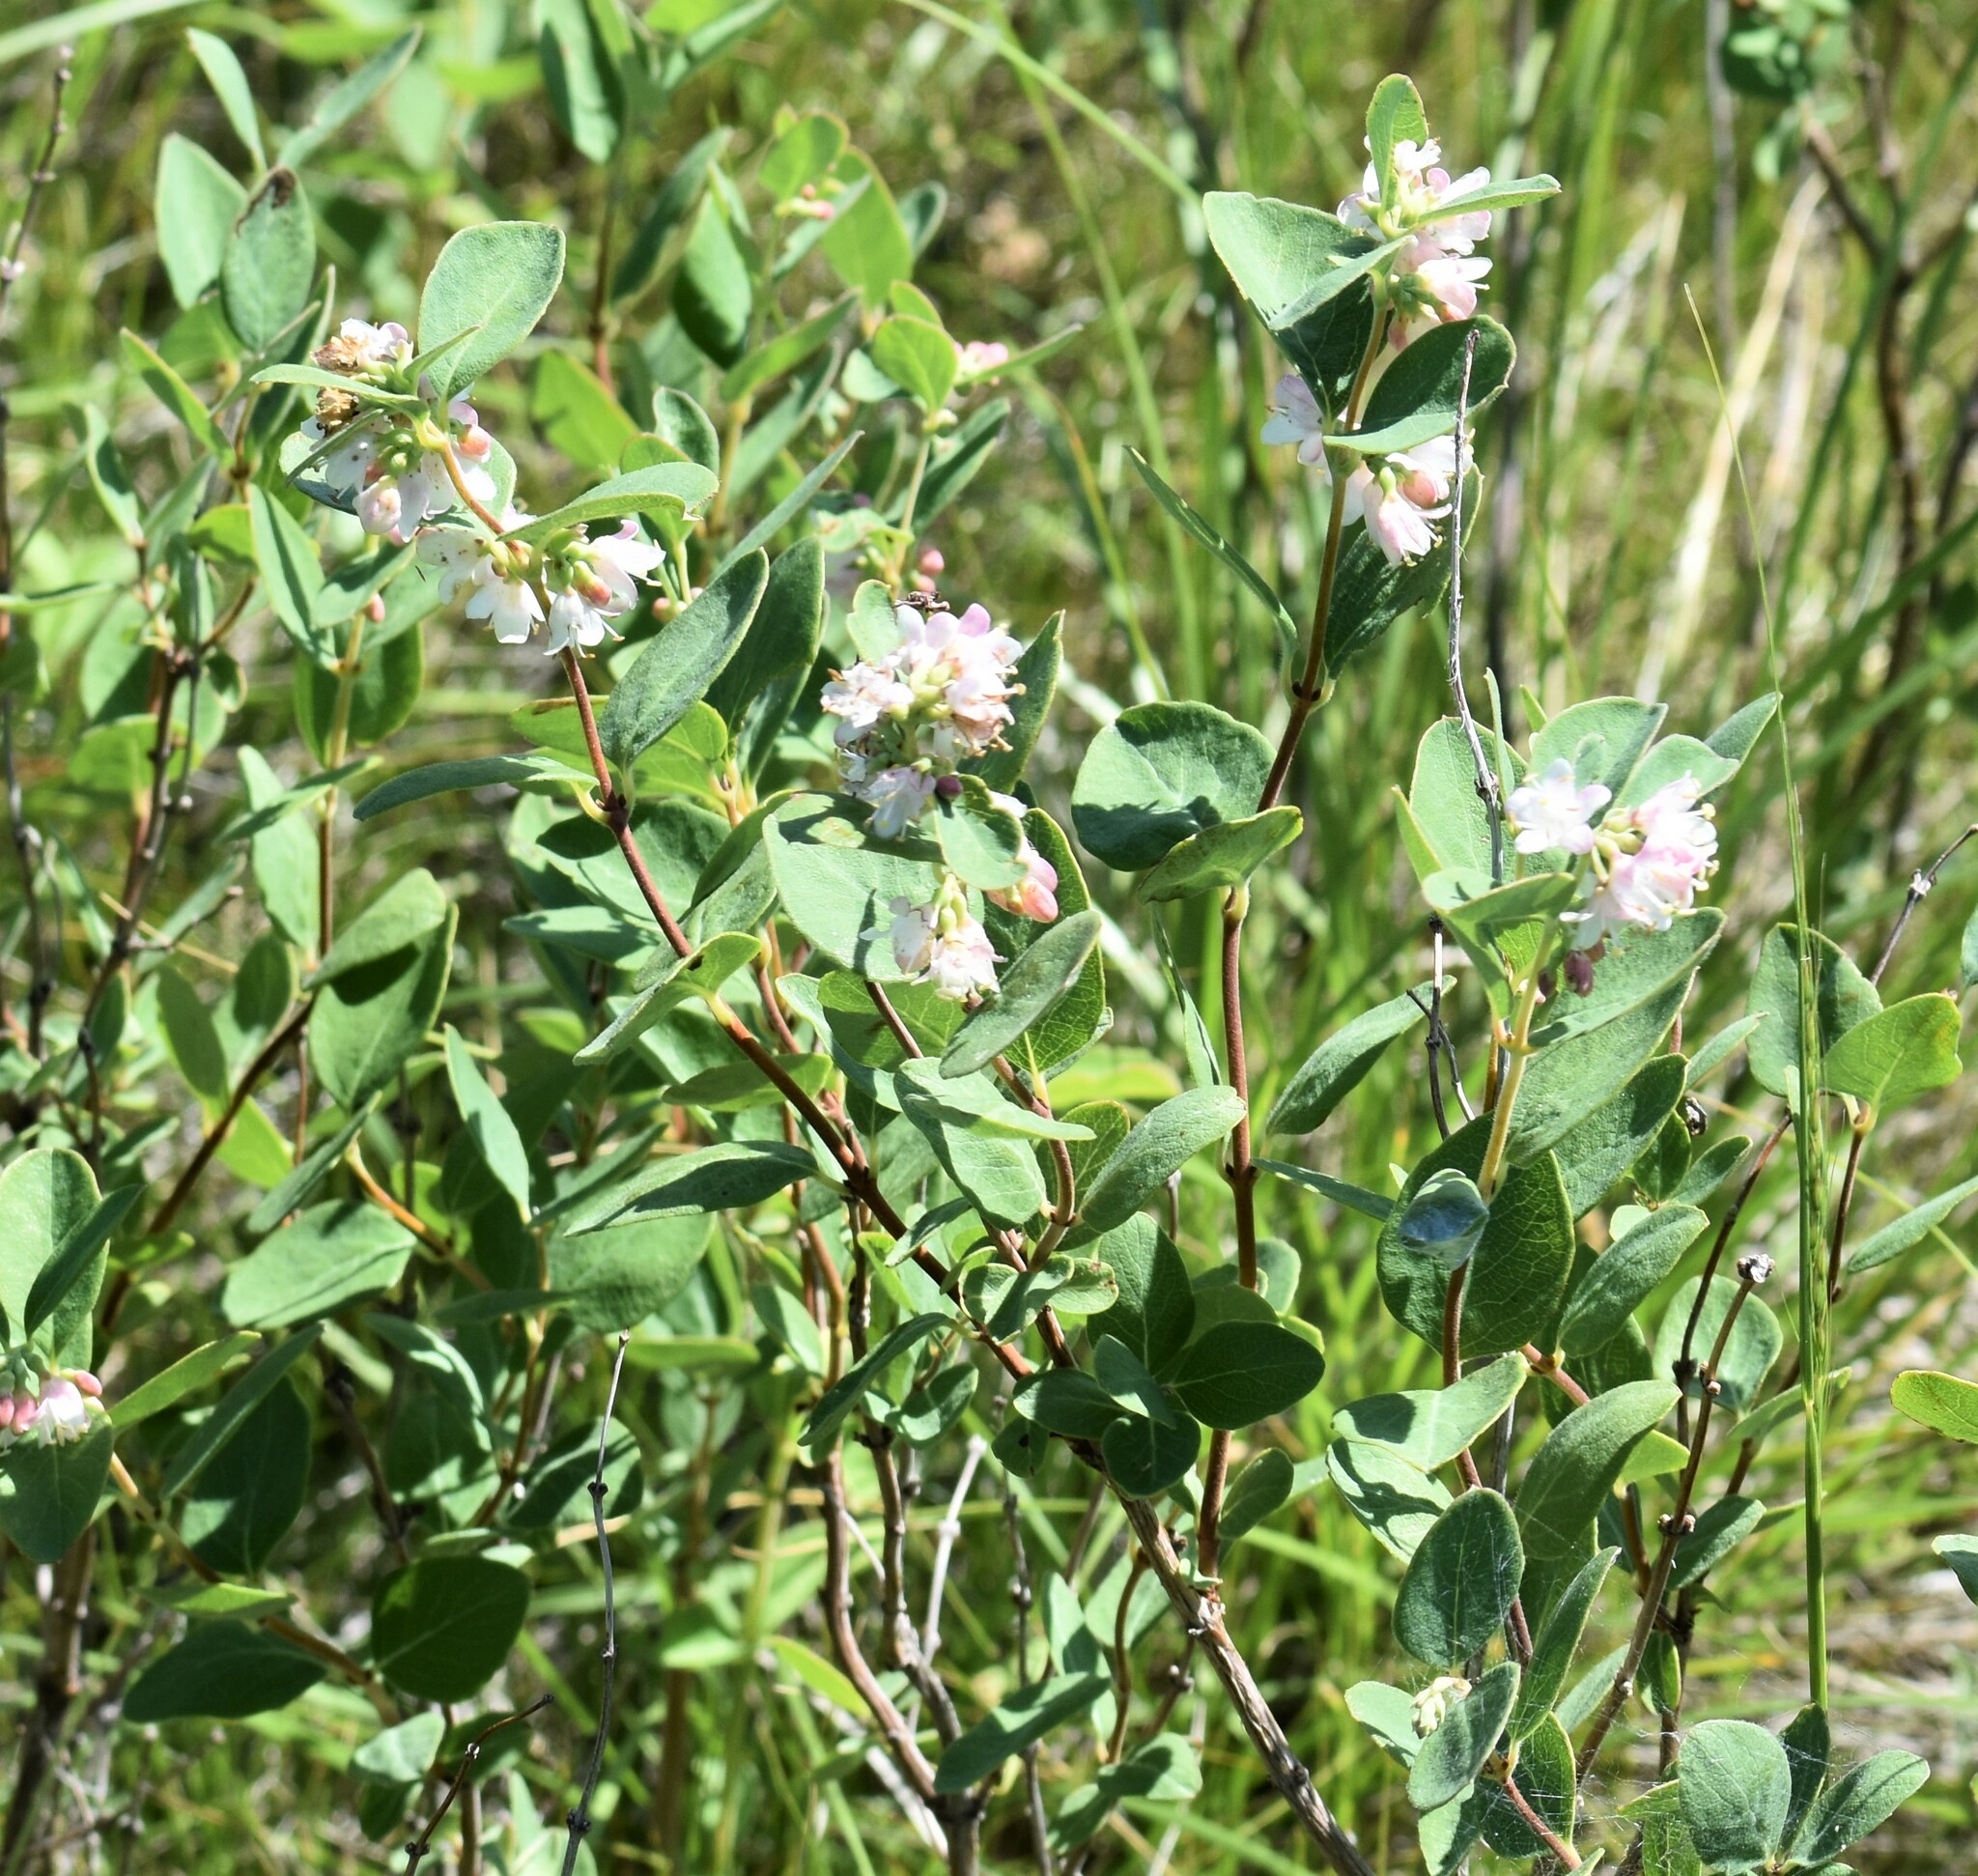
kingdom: Plantae
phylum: Tracheophyta
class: Magnoliopsida
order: Dipsacales
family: Caprifoliaceae
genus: Symphoricarpos
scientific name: Symphoricarpos occidentalis
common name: Wolfberry
